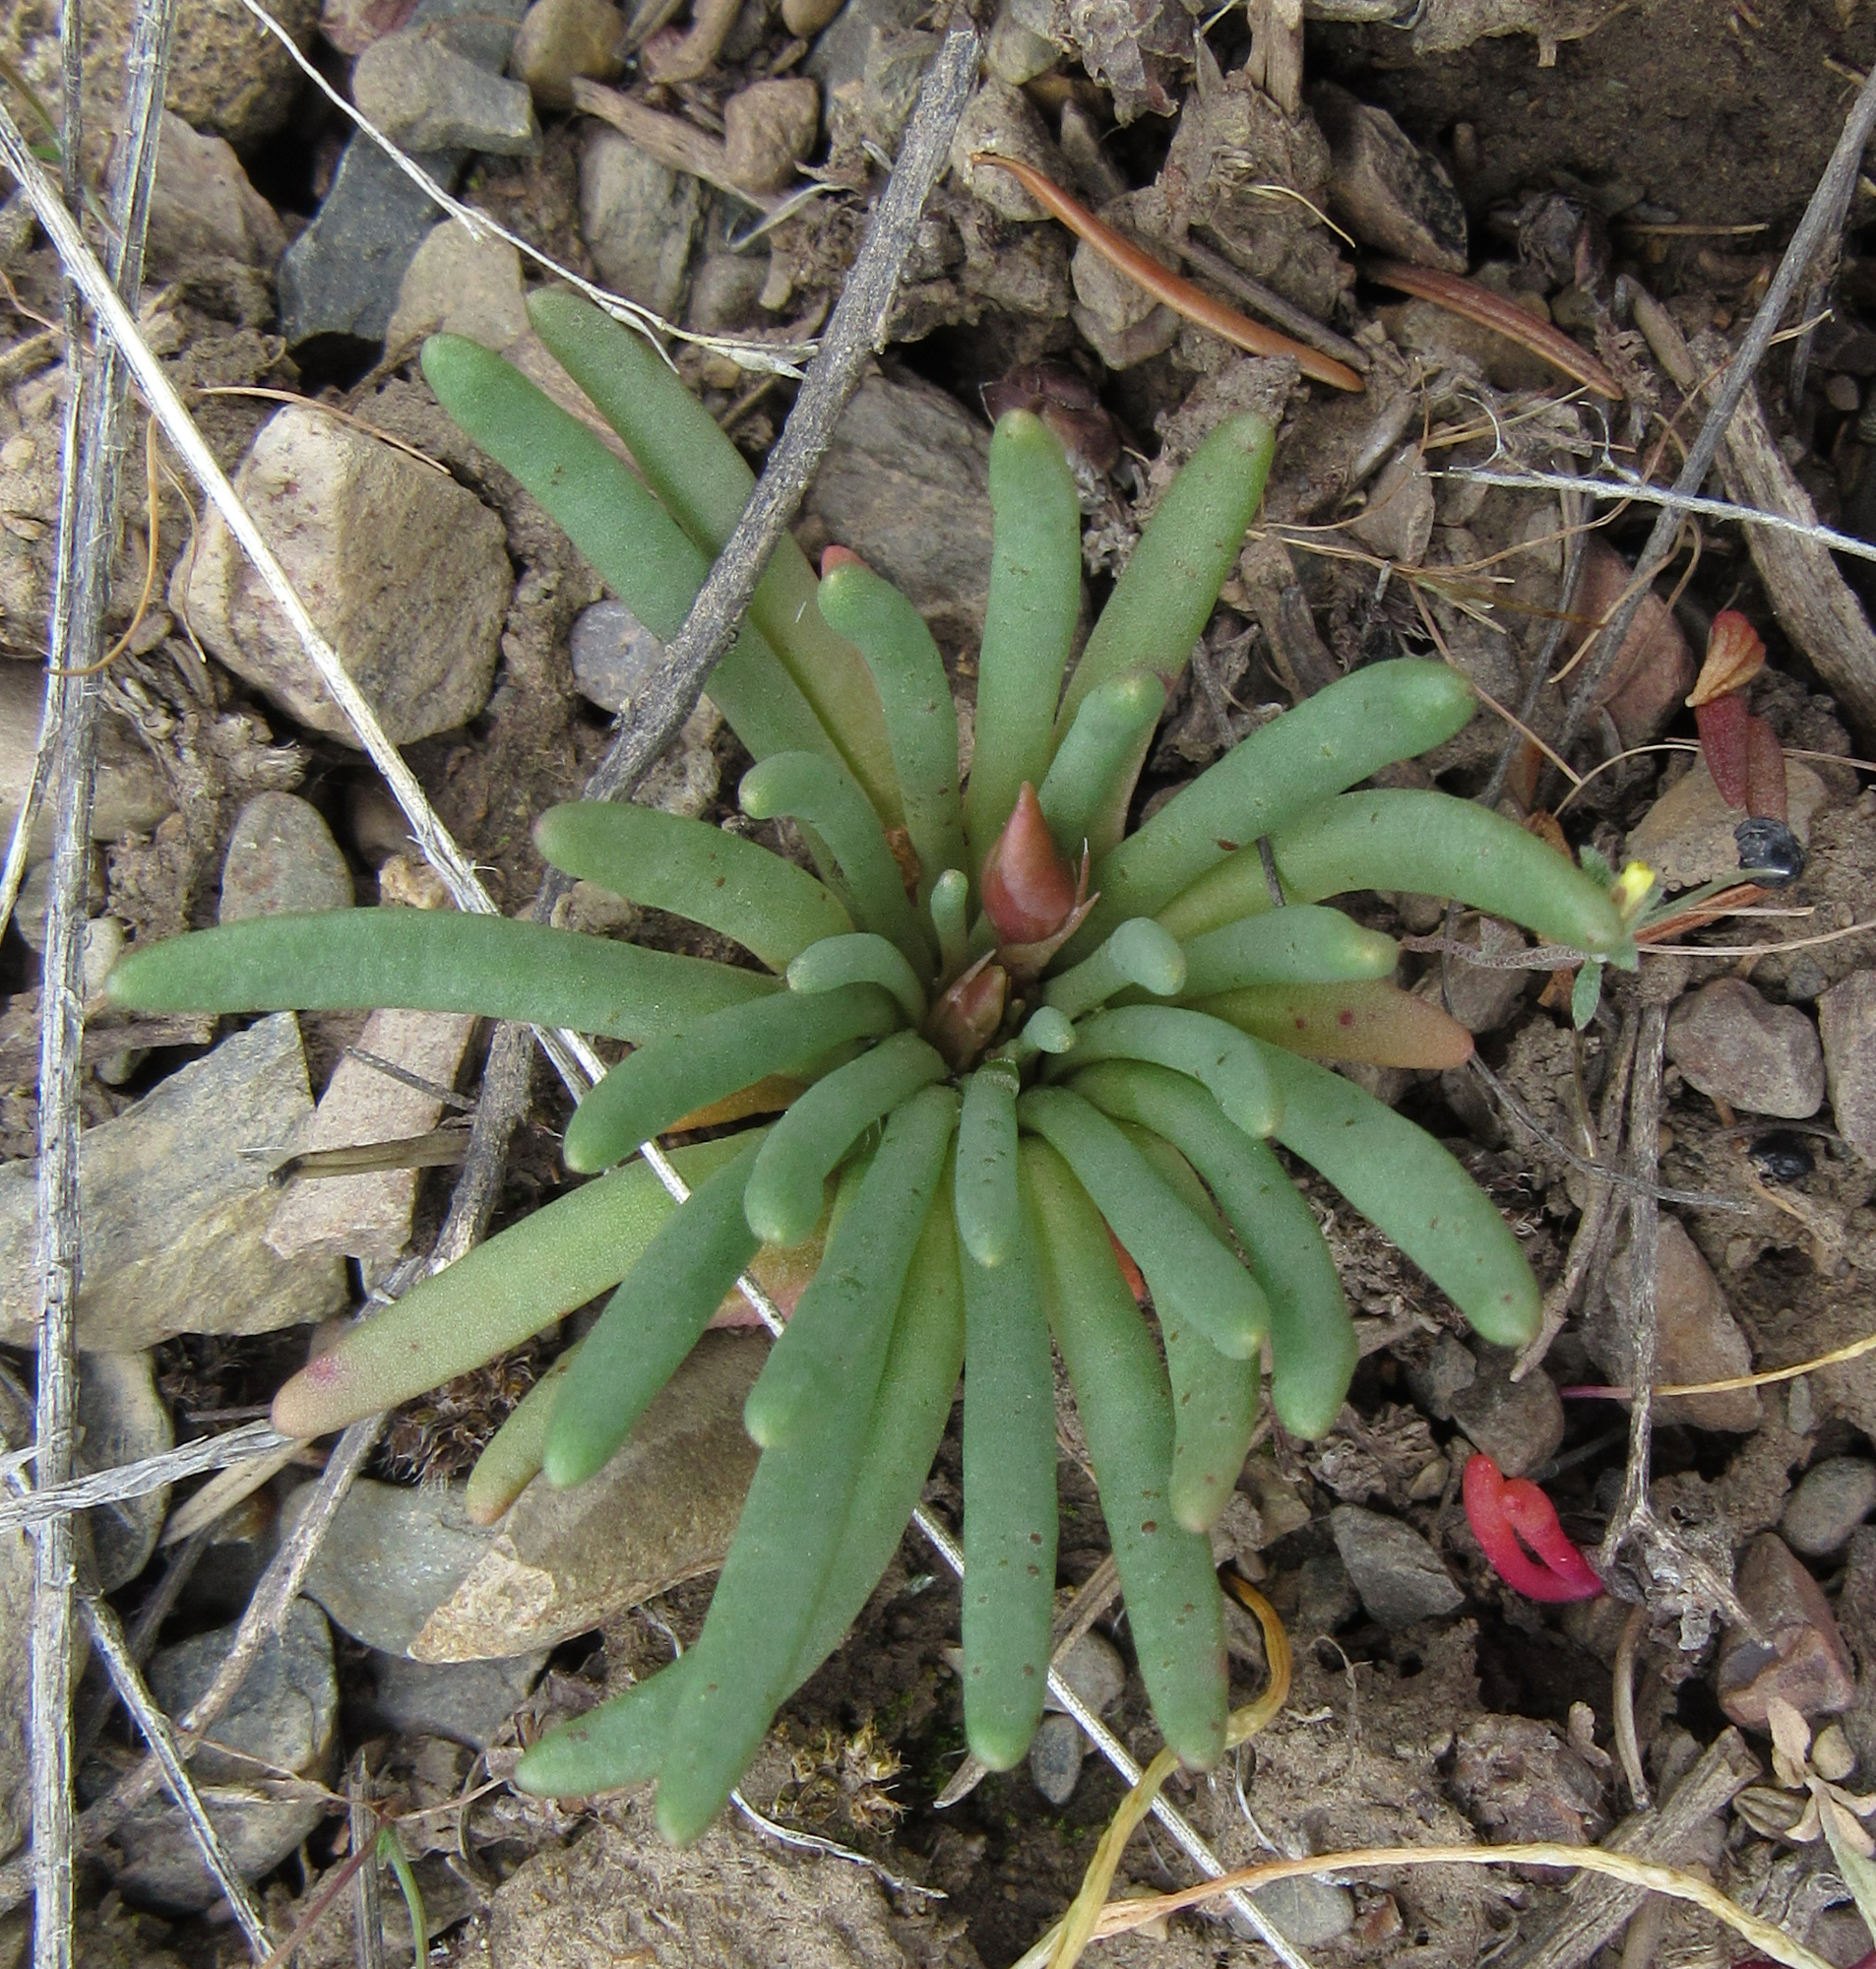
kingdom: Plantae
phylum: Tracheophyta
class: Magnoliopsida
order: Caryophyllales
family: Montiaceae
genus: Lewisia
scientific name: Lewisia rediviva
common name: Bitter-root
